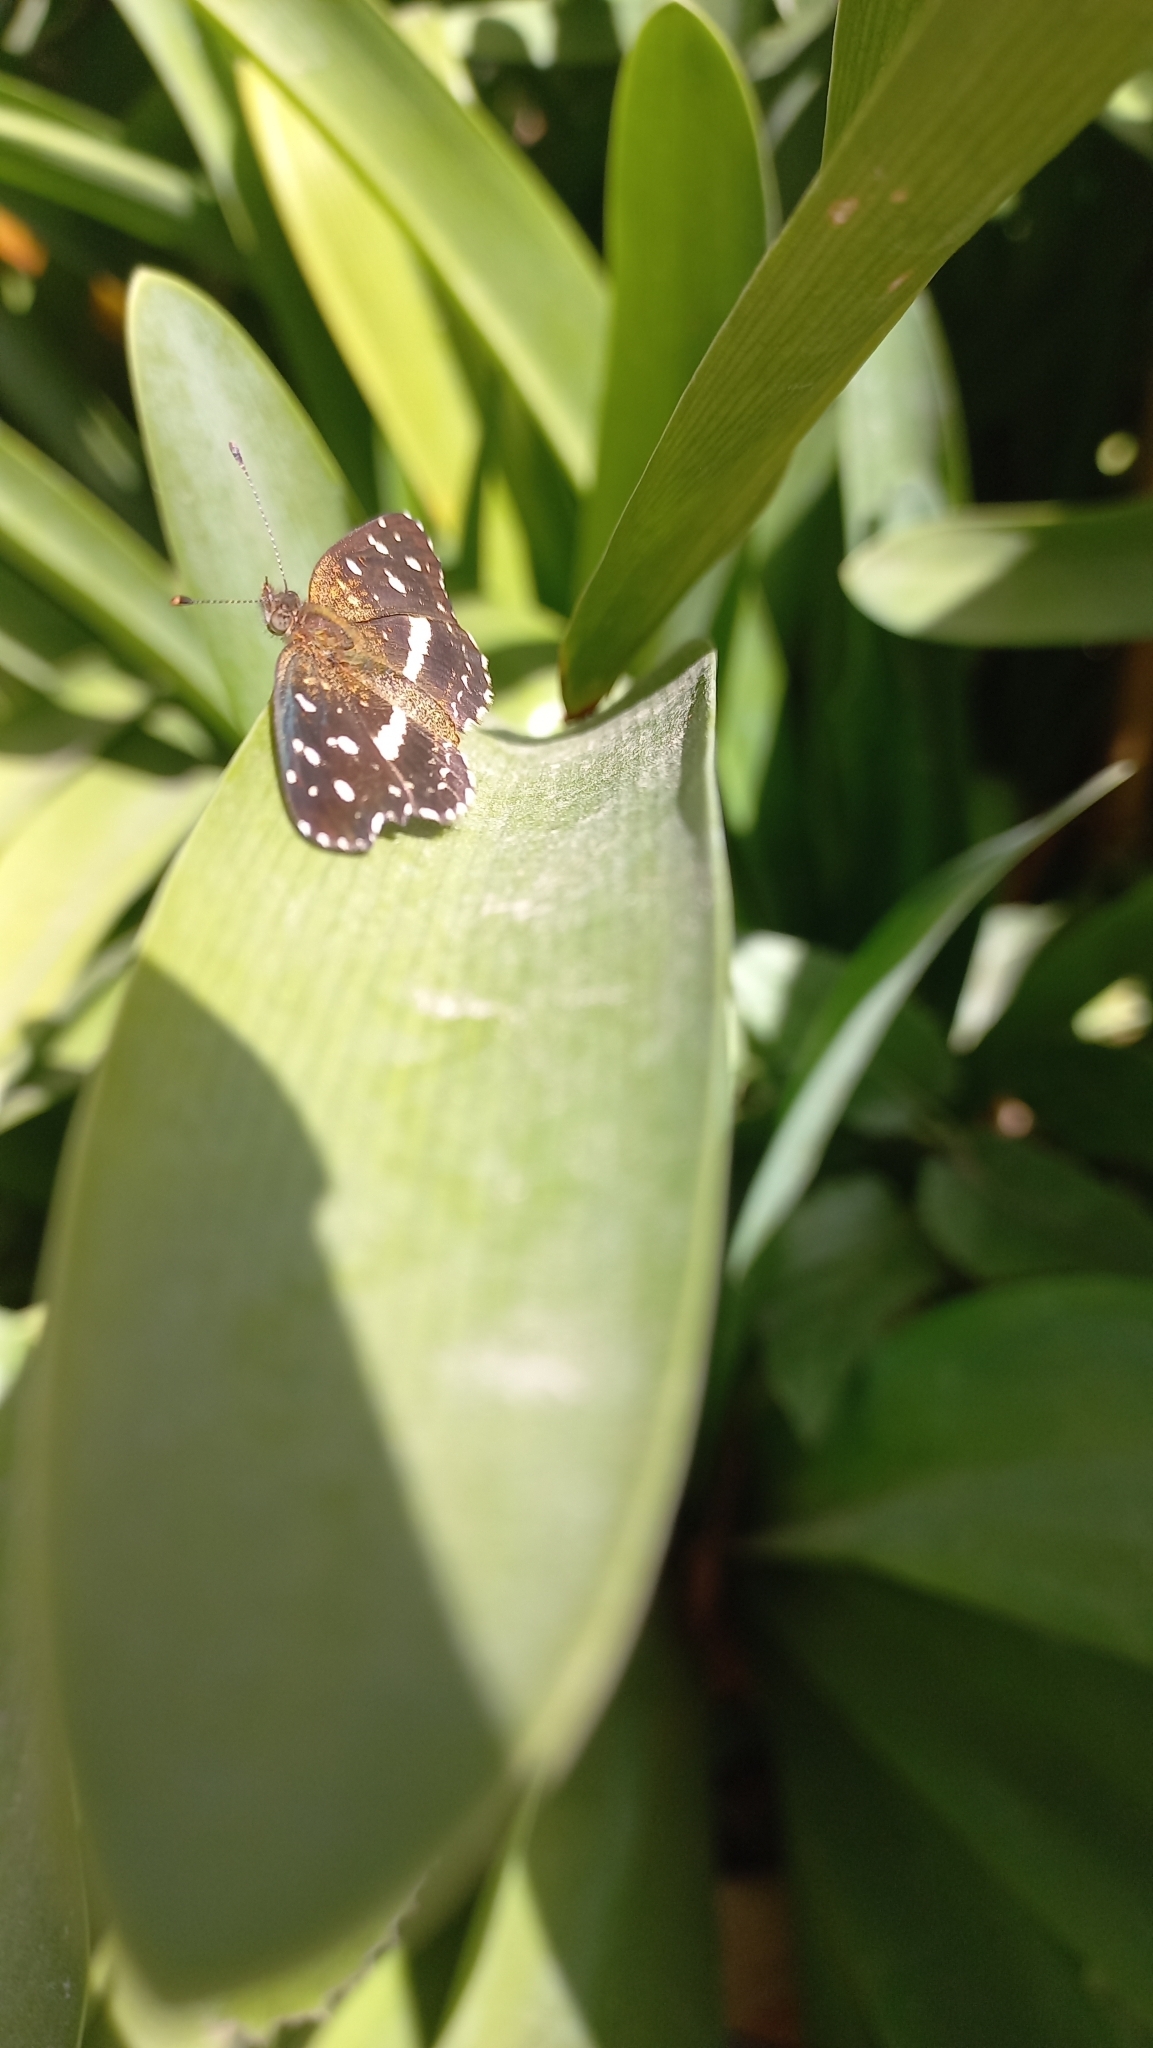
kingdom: Animalia
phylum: Arthropoda
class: Insecta
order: Lepidoptera
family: Nymphalidae
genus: Ortilia
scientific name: Ortilia ithra
